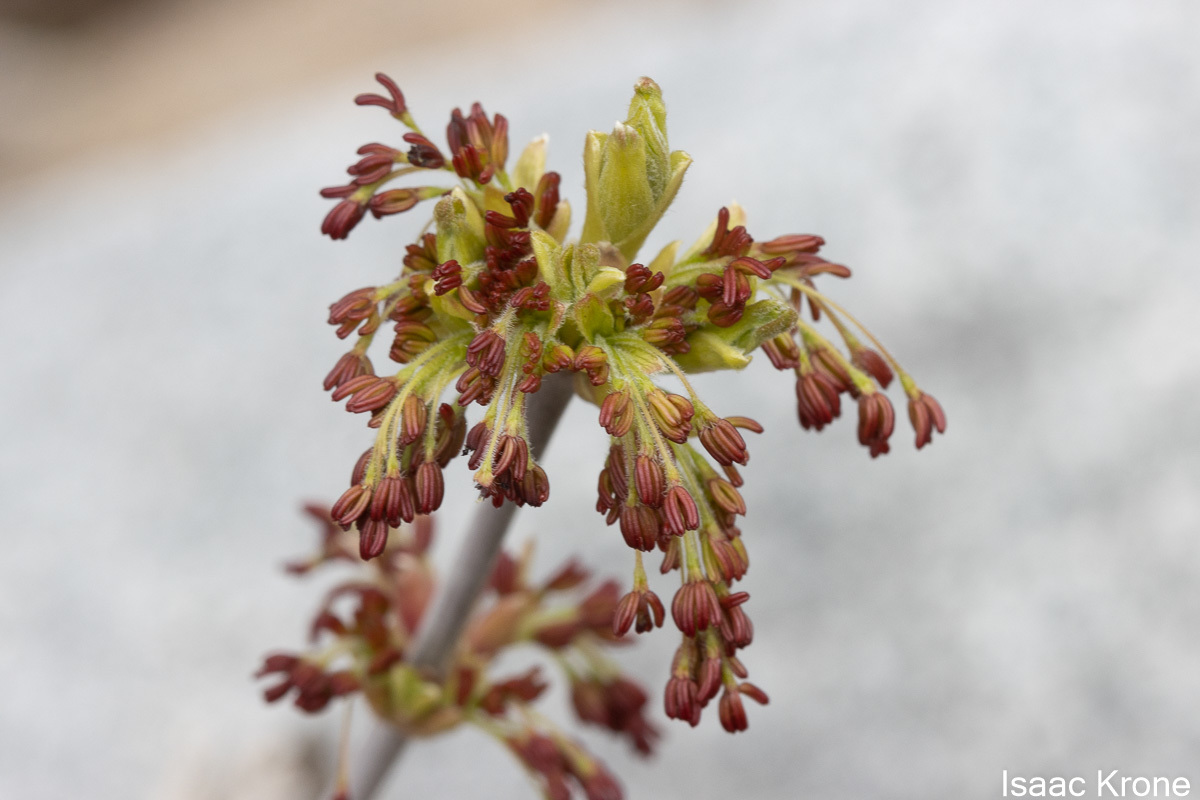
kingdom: Plantae
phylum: Tracheophyta
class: Magnoliopsida
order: Sapindales
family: Sapindaceae
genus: Acer
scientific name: Acer negundo
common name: Ashleaf maple
